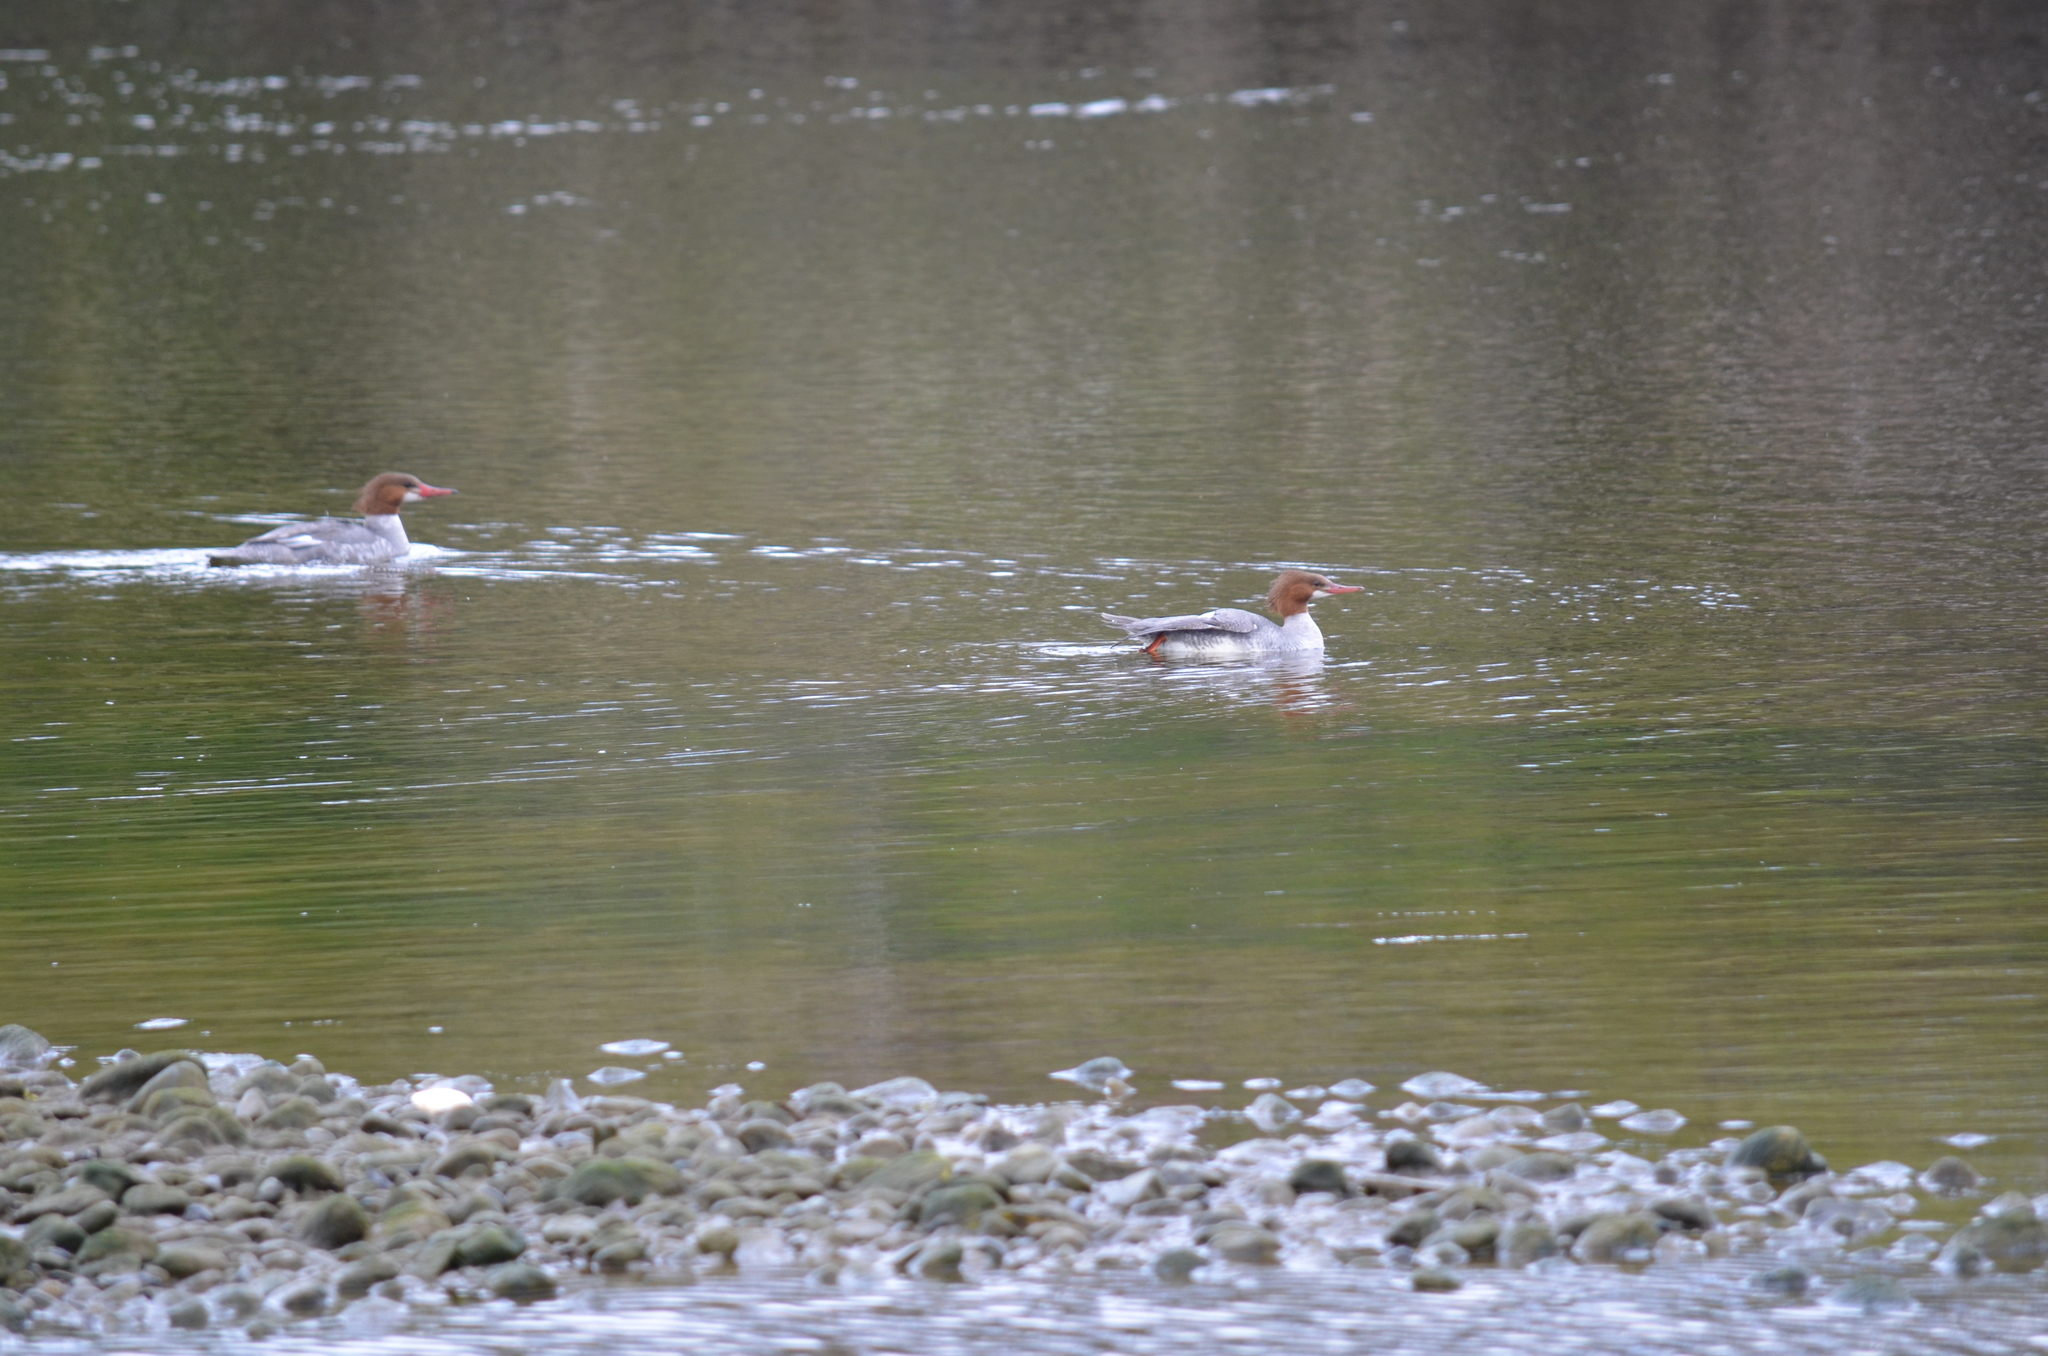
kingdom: Animalia
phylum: Chordata
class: Aves
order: Anseriformes
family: Anatidae
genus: Mergus
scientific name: Mergus merganser
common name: Common merganser
